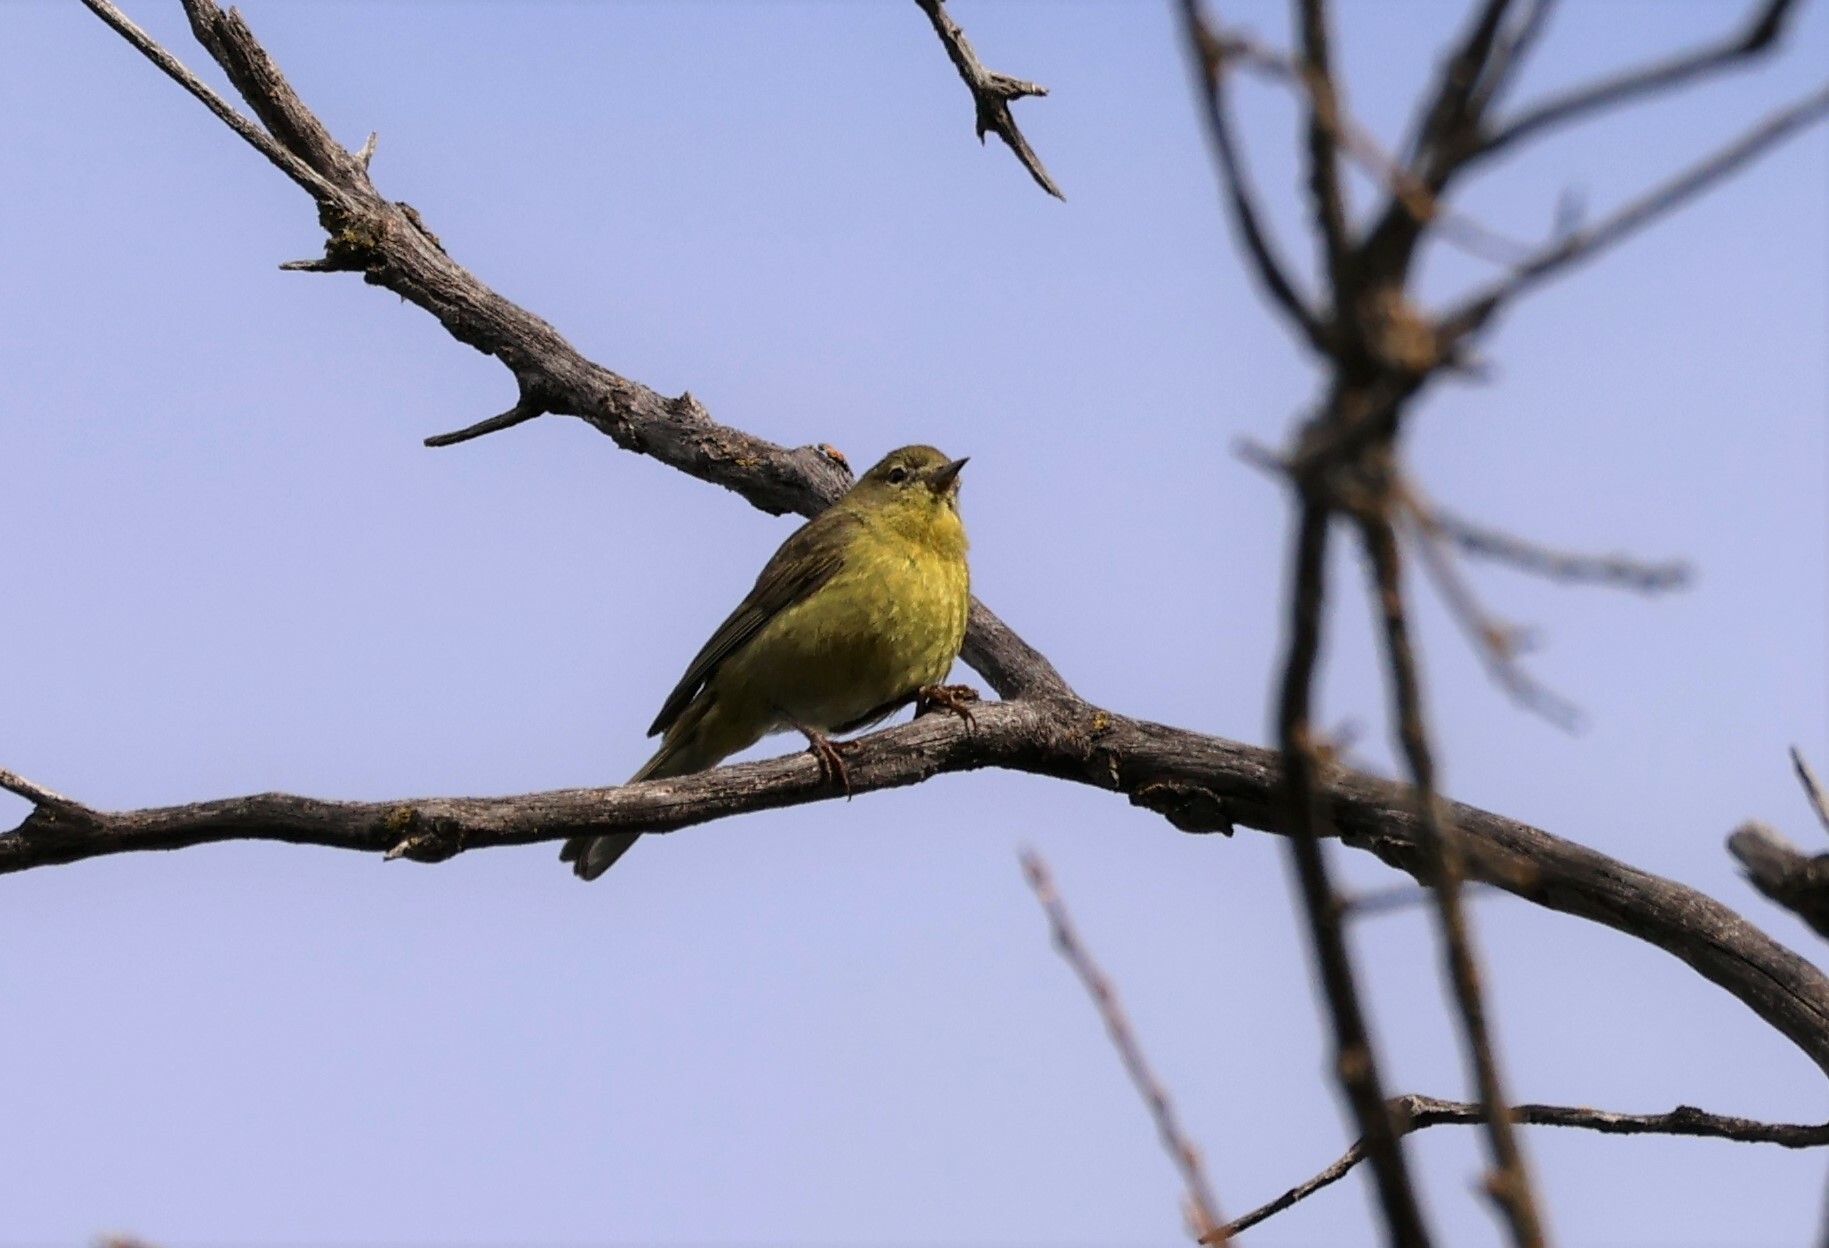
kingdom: Animalia
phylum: Chordata
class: Aves
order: Passeriformes
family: Parulidae
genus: Leiothlypis
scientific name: Leiothlypis celata
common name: Orange-crowned warbler
